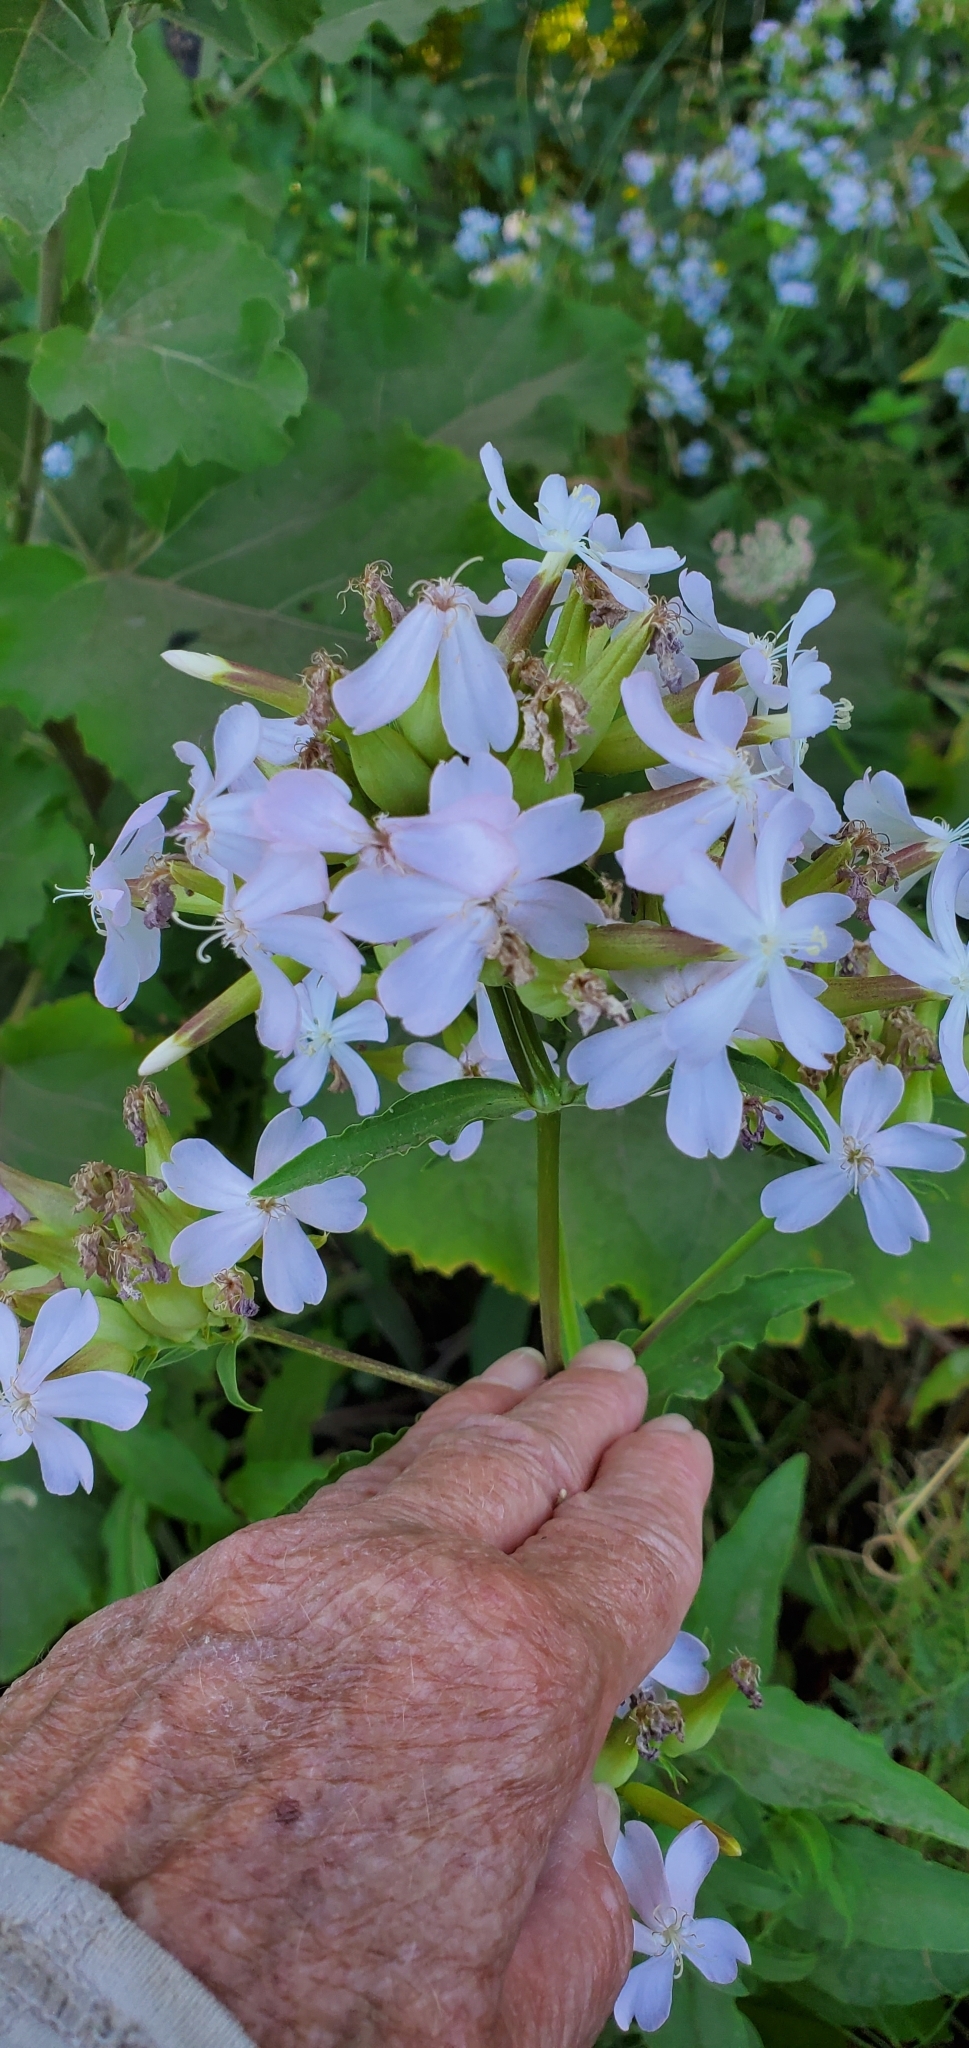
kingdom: Plantae
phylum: Tracheophyta
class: Magnoliopsida
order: Caryophyllales
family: Caryophyllaceae
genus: Saponaria
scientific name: Saponaria officinalis
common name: Soapwort
